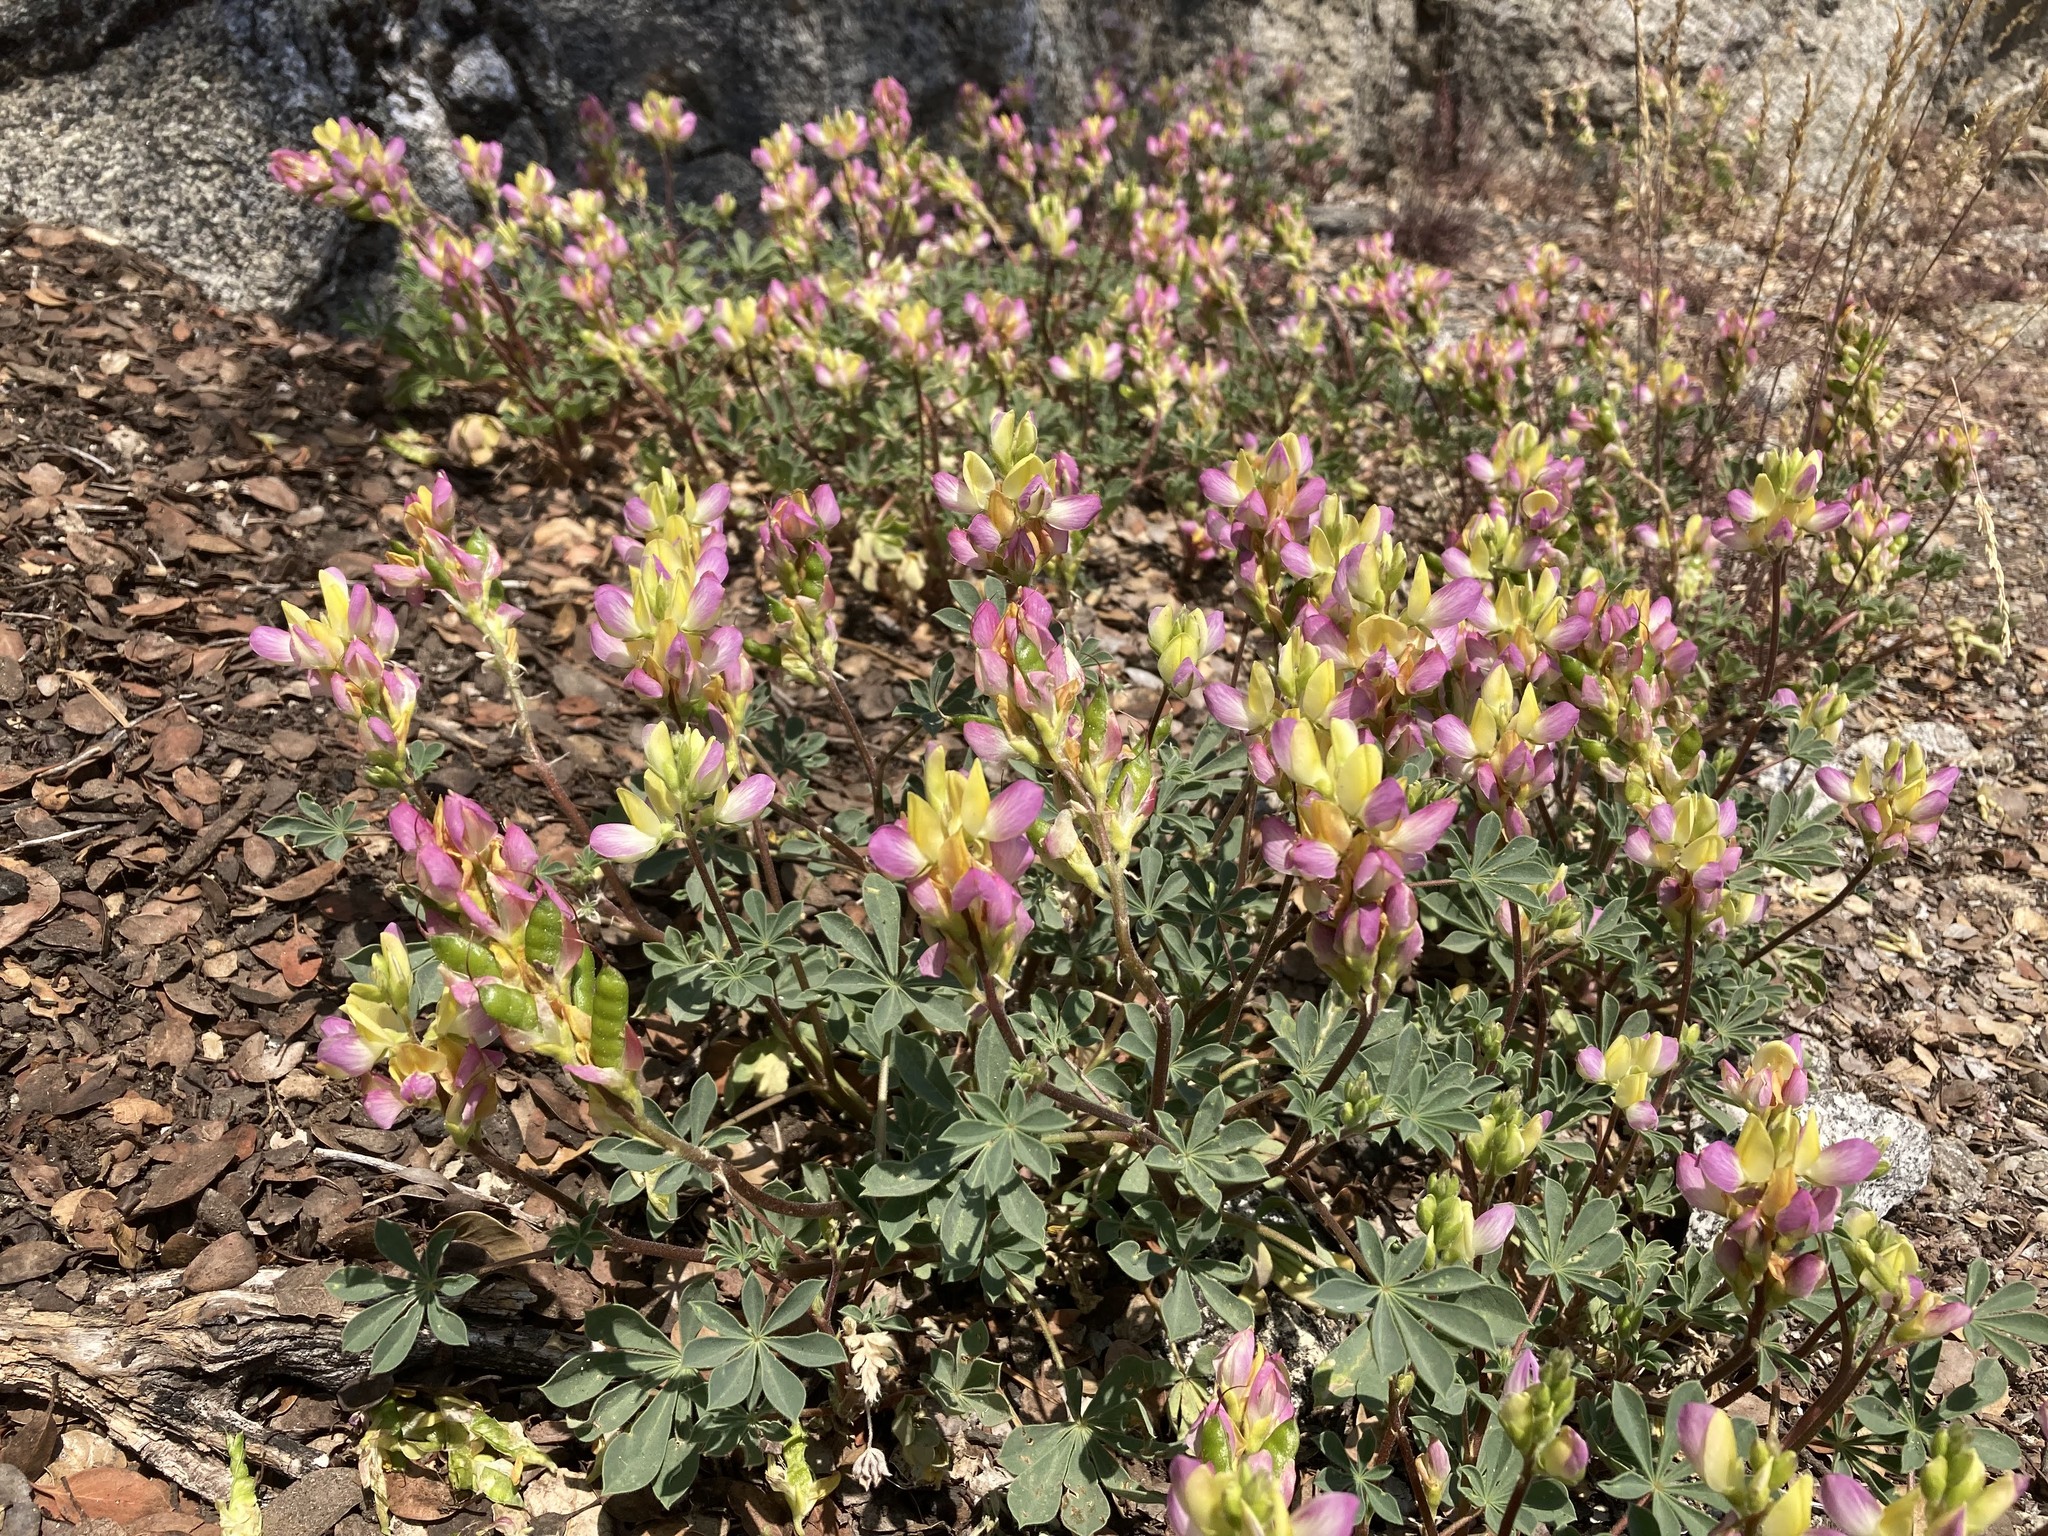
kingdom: Plantae
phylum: Tracheophyta
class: Magnoliopsida
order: Fabales
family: Fabaceae
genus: Lupinus
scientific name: Lupinus stiversii
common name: Harlequin lupine
